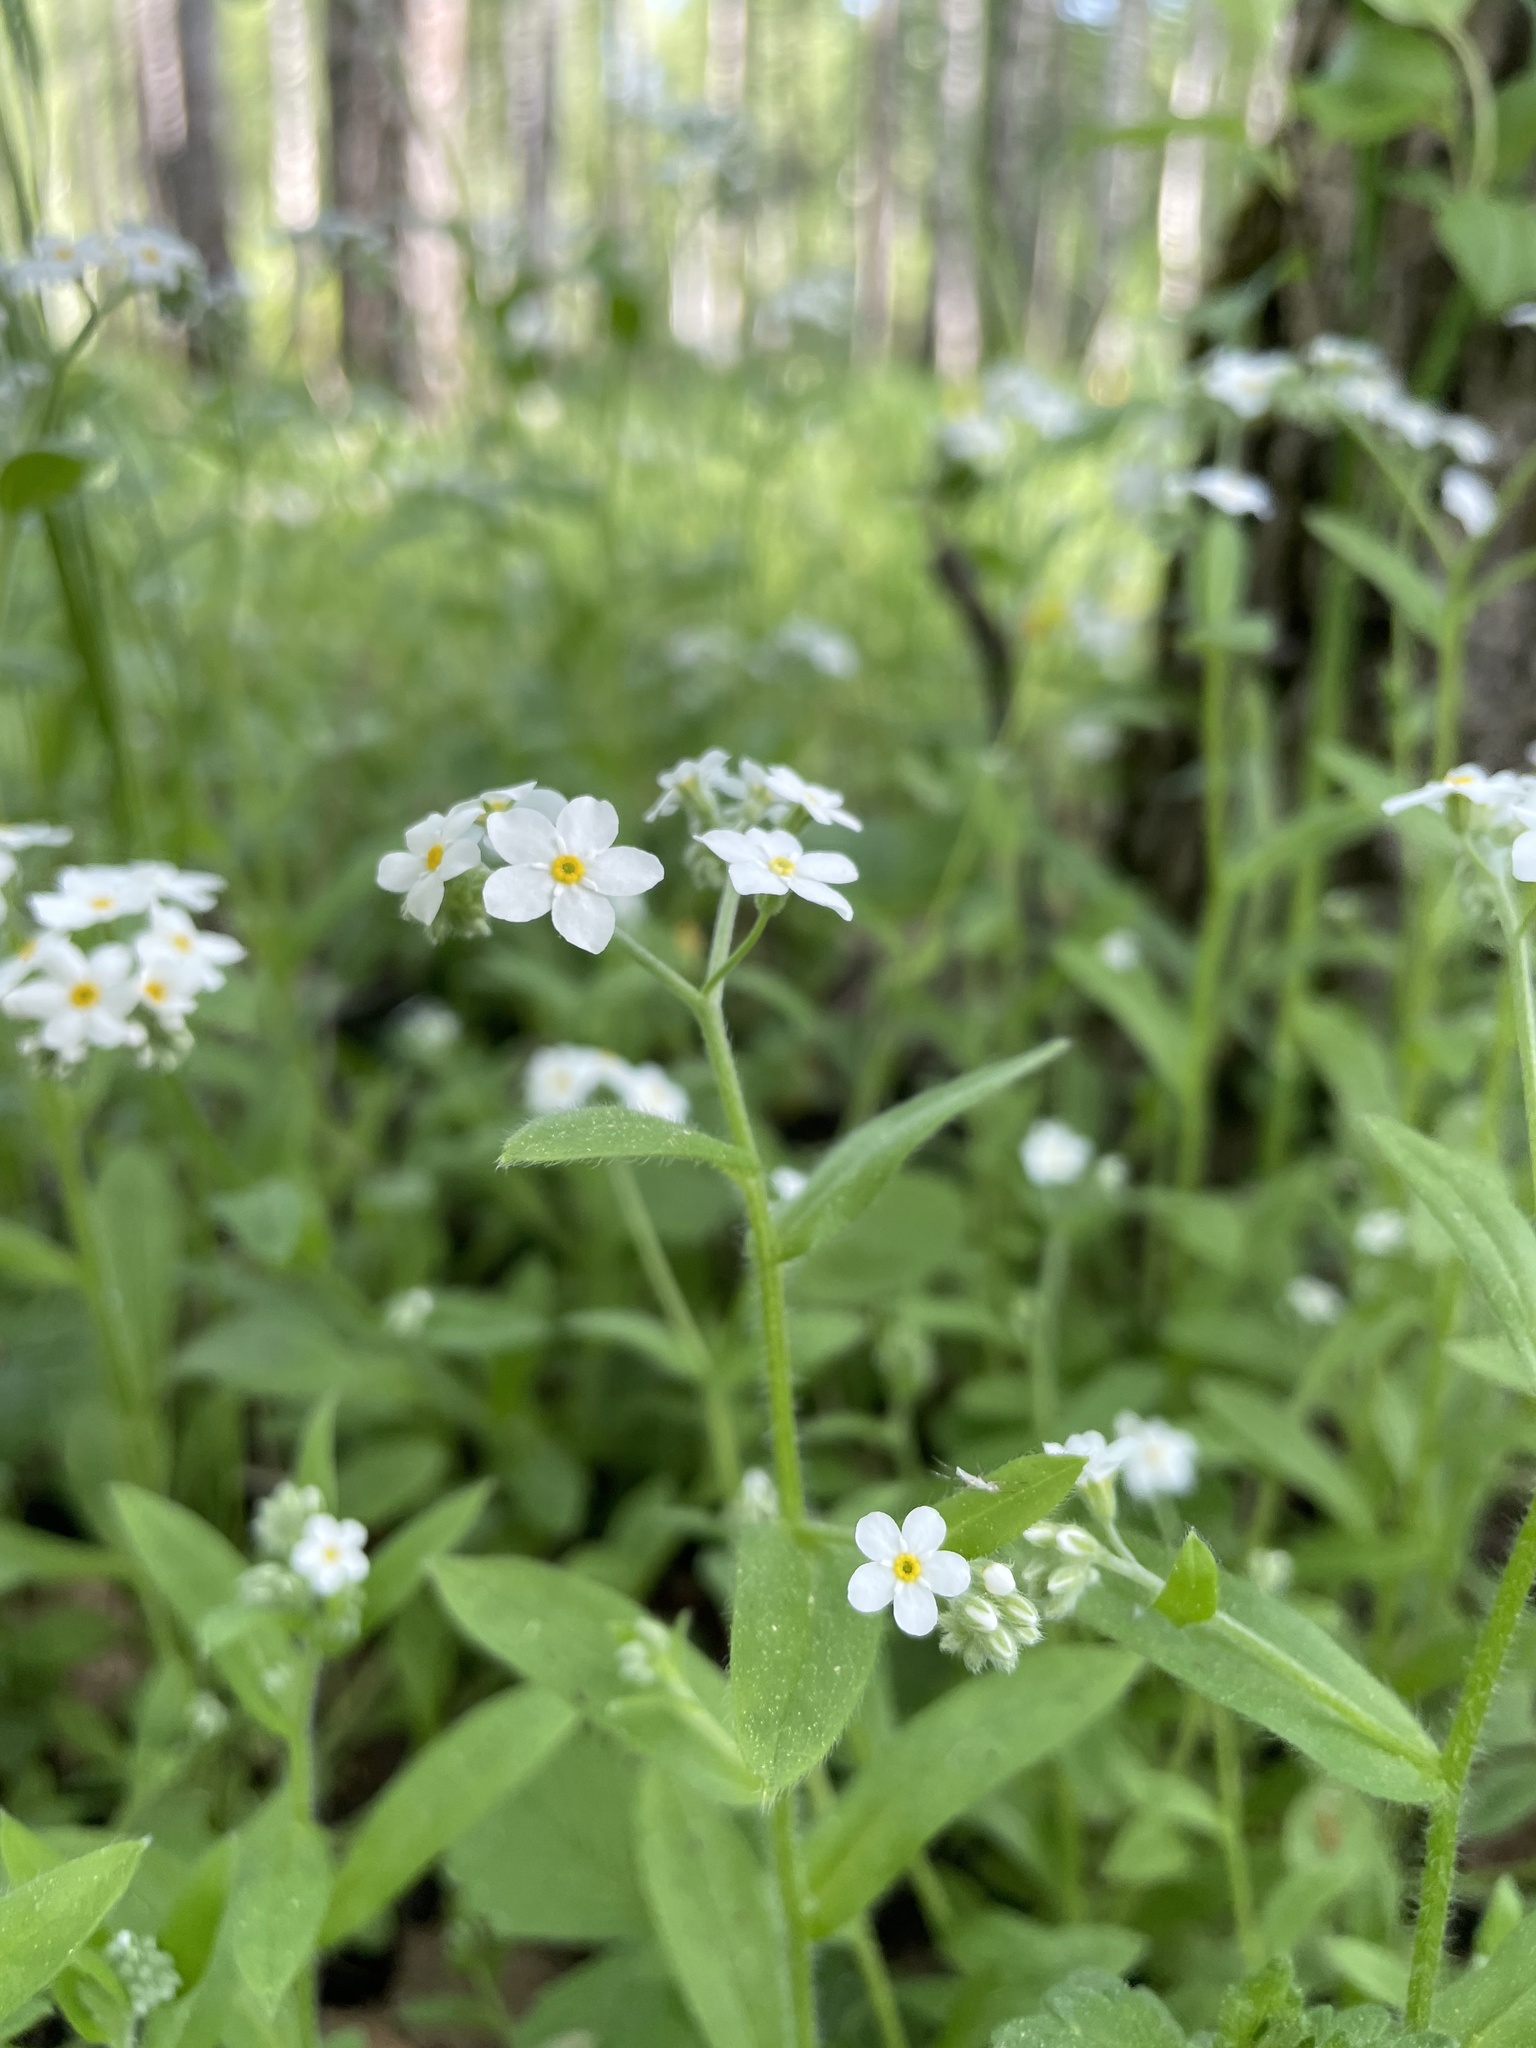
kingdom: Plantae
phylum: Tracheophyta
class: Magnoliopsida
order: Boraginales
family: Boraginaceae
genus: Myosotis
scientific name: Myosotis sylvatica
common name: Wood forget-me-not
